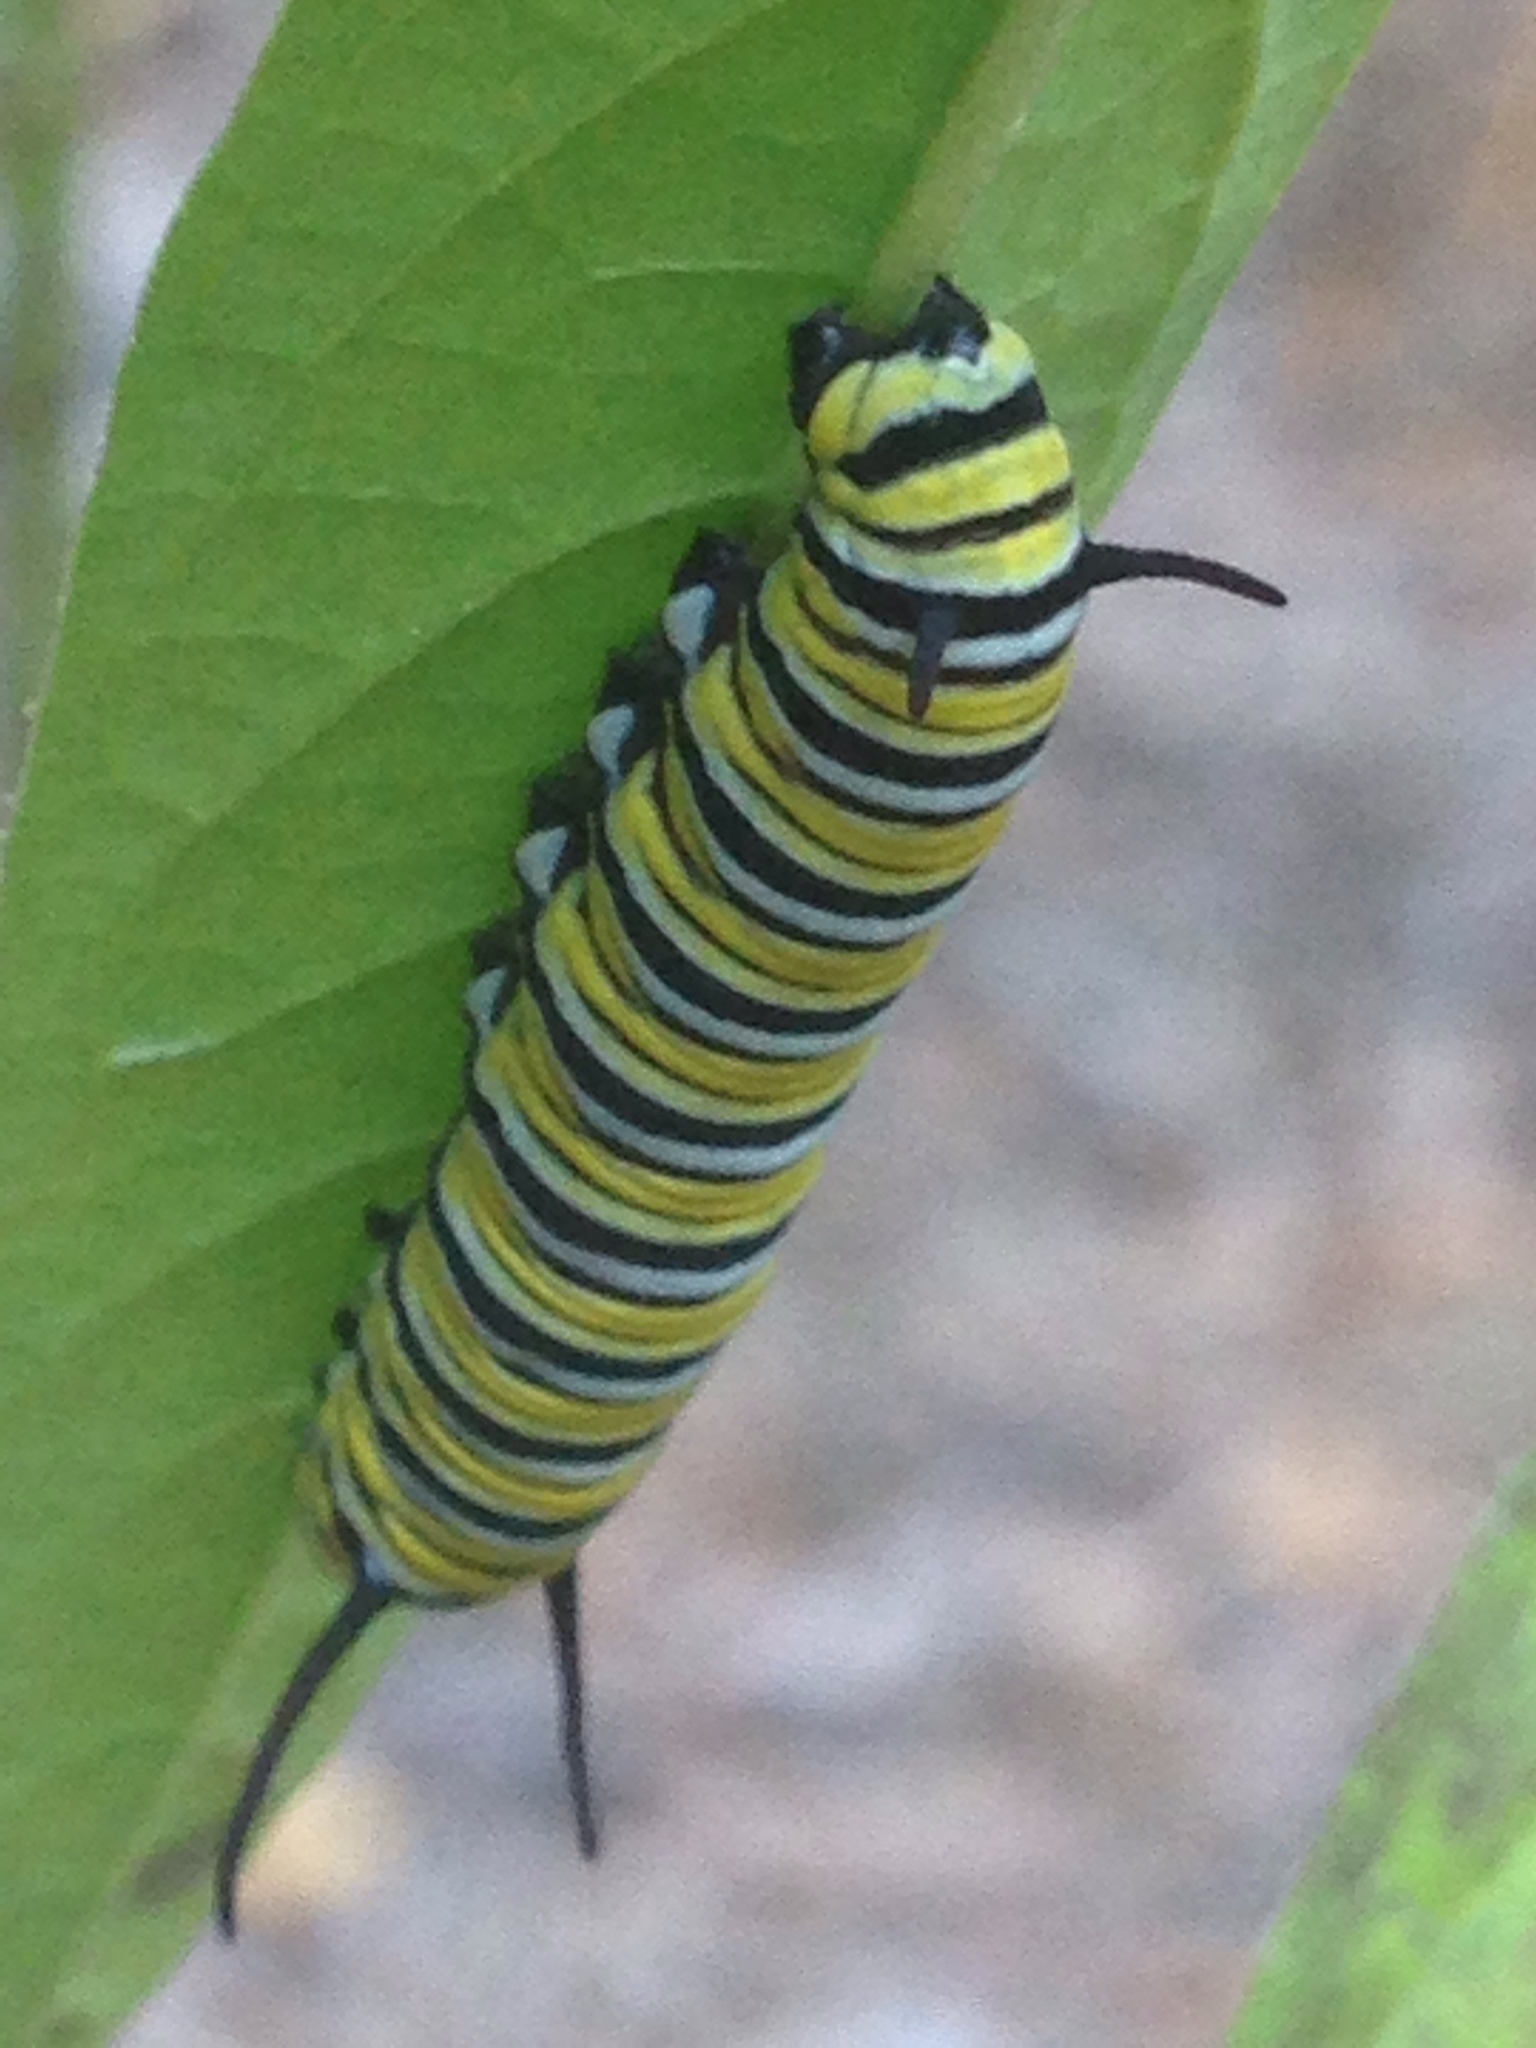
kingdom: Animalia
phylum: Arthropoda
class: Insecta
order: Lepidoptera
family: Nymphalidae
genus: Danaus
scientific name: Danaus plexippus
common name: Monarch
